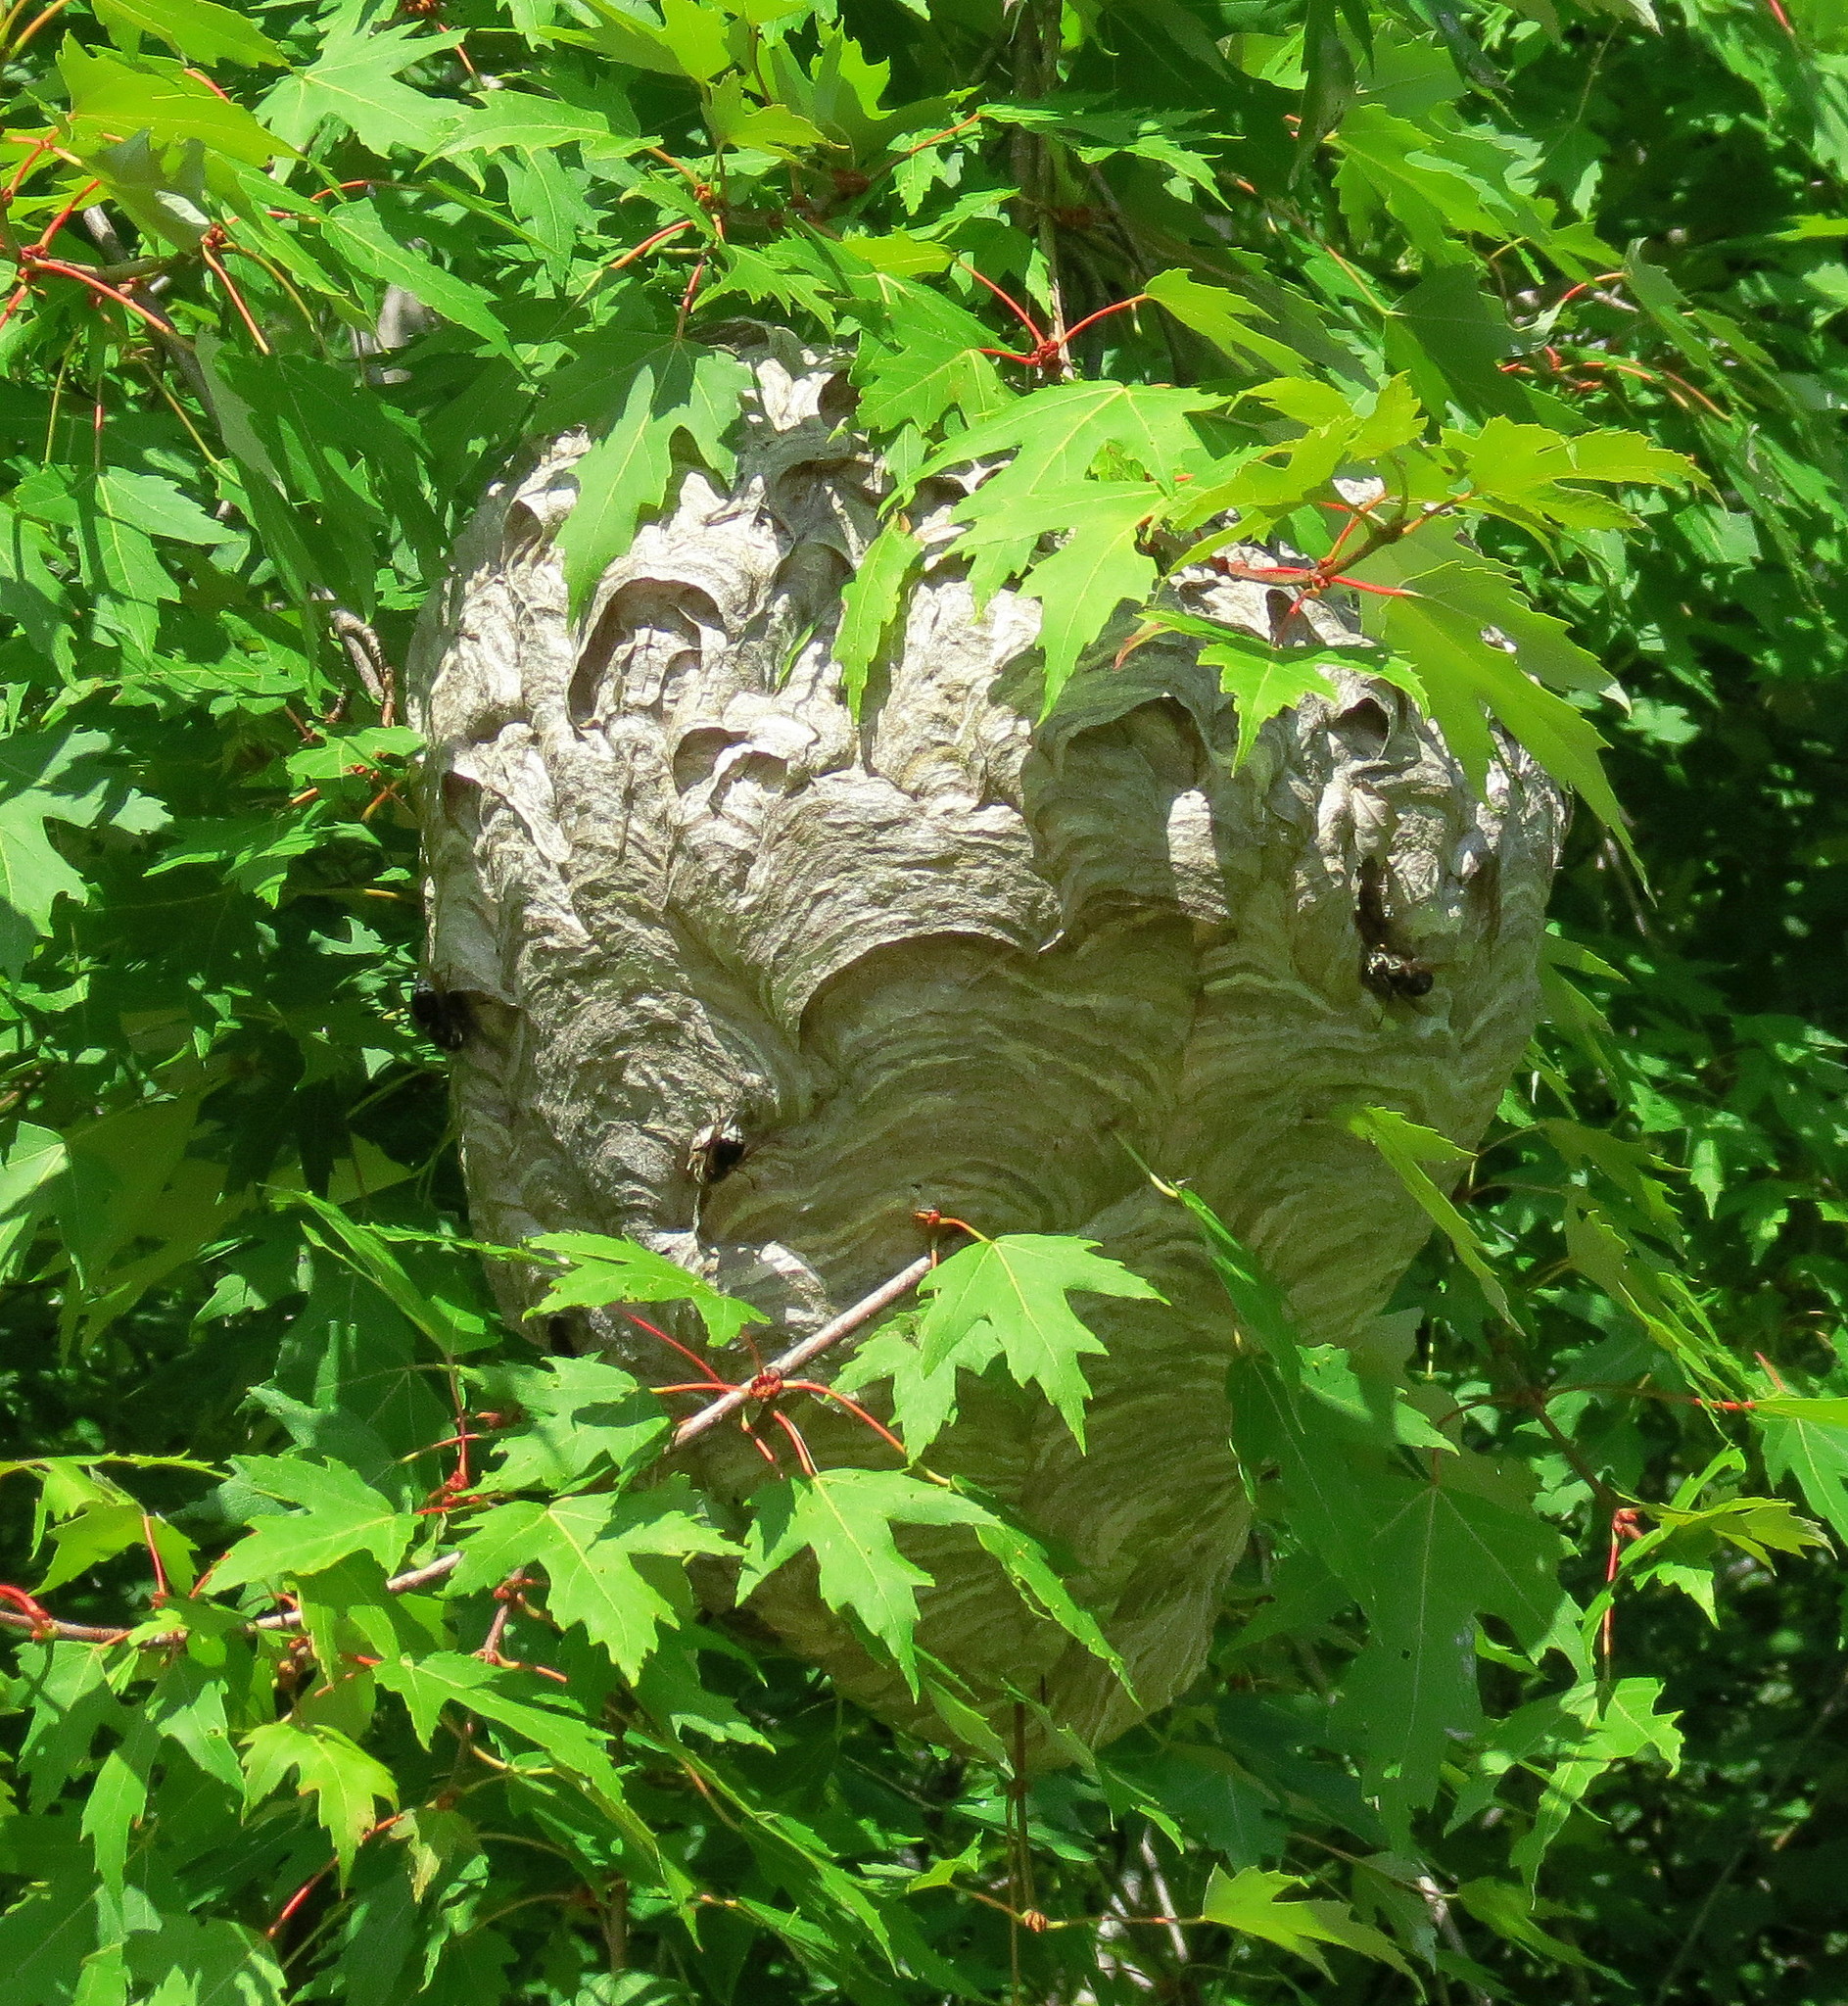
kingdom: Animalia
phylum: Arthropoda
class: Insecta
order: Hymenoptera
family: Vespidae
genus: Dolichovespula
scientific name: Dolichovespula maculata
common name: Bald-faced hornet
